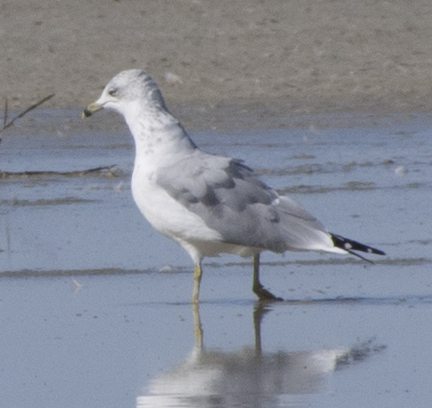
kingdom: Animalia
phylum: Chordata
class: Aves
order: Charadriiformes
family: Laridae
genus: Larus
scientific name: Larus delawarensis
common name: Ring-billed gull
